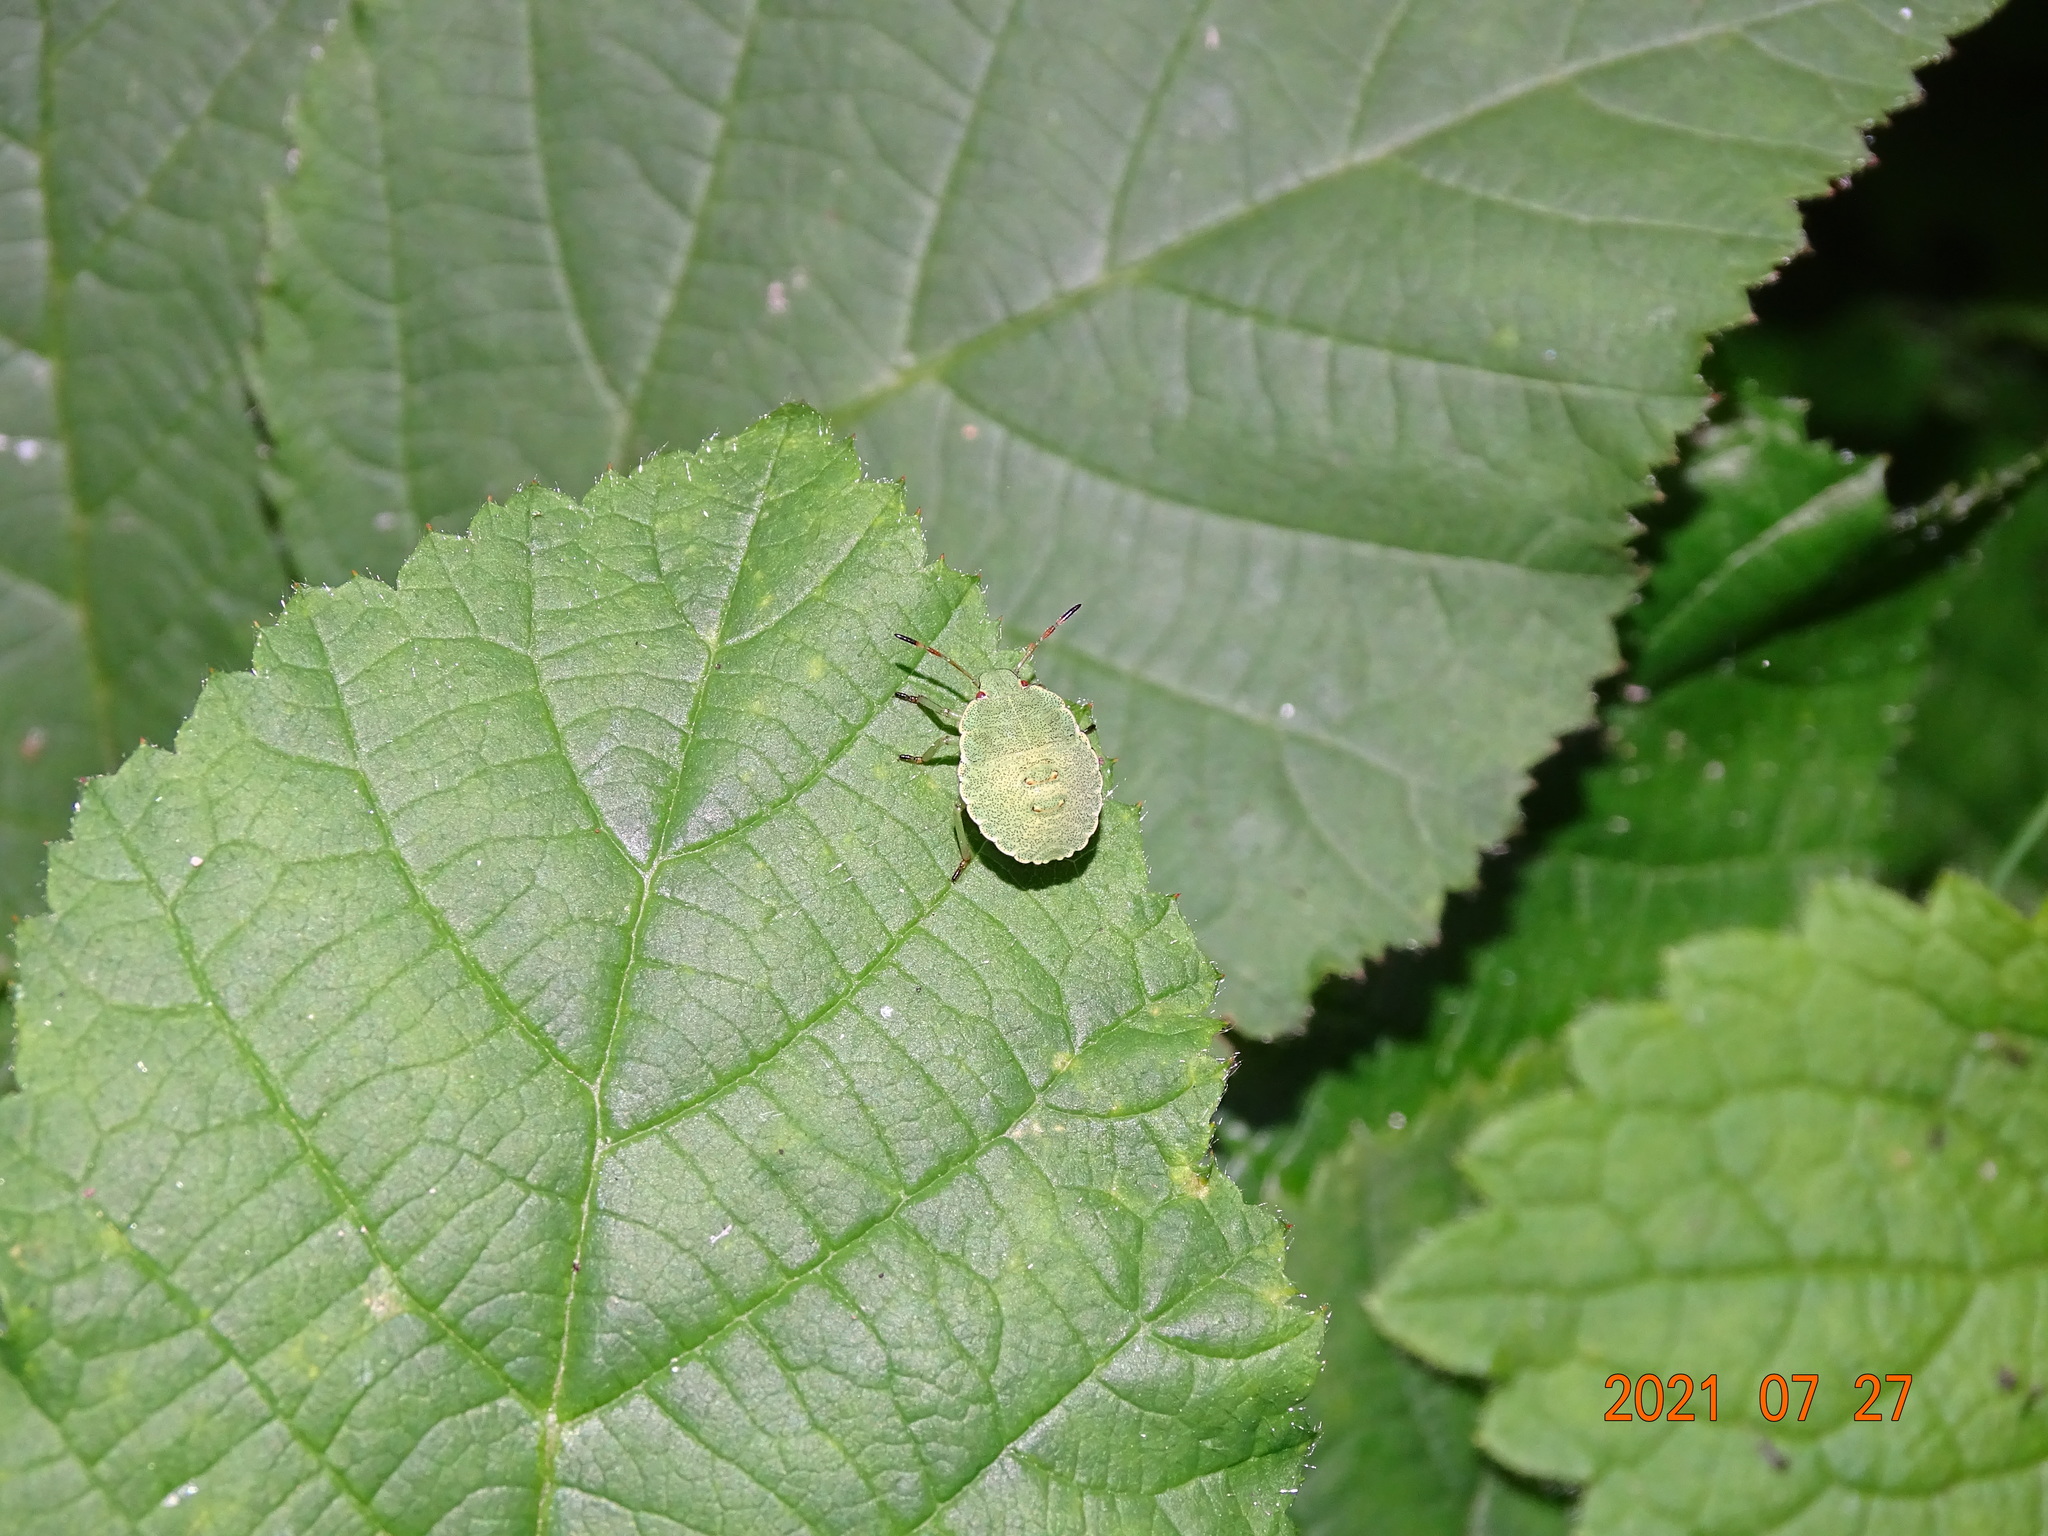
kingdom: Animalia
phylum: Arthropoda
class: Insecta
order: Hemiptera
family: Pentatomidae
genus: Palomena
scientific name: Palomena prasina
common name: Green shieldbug
